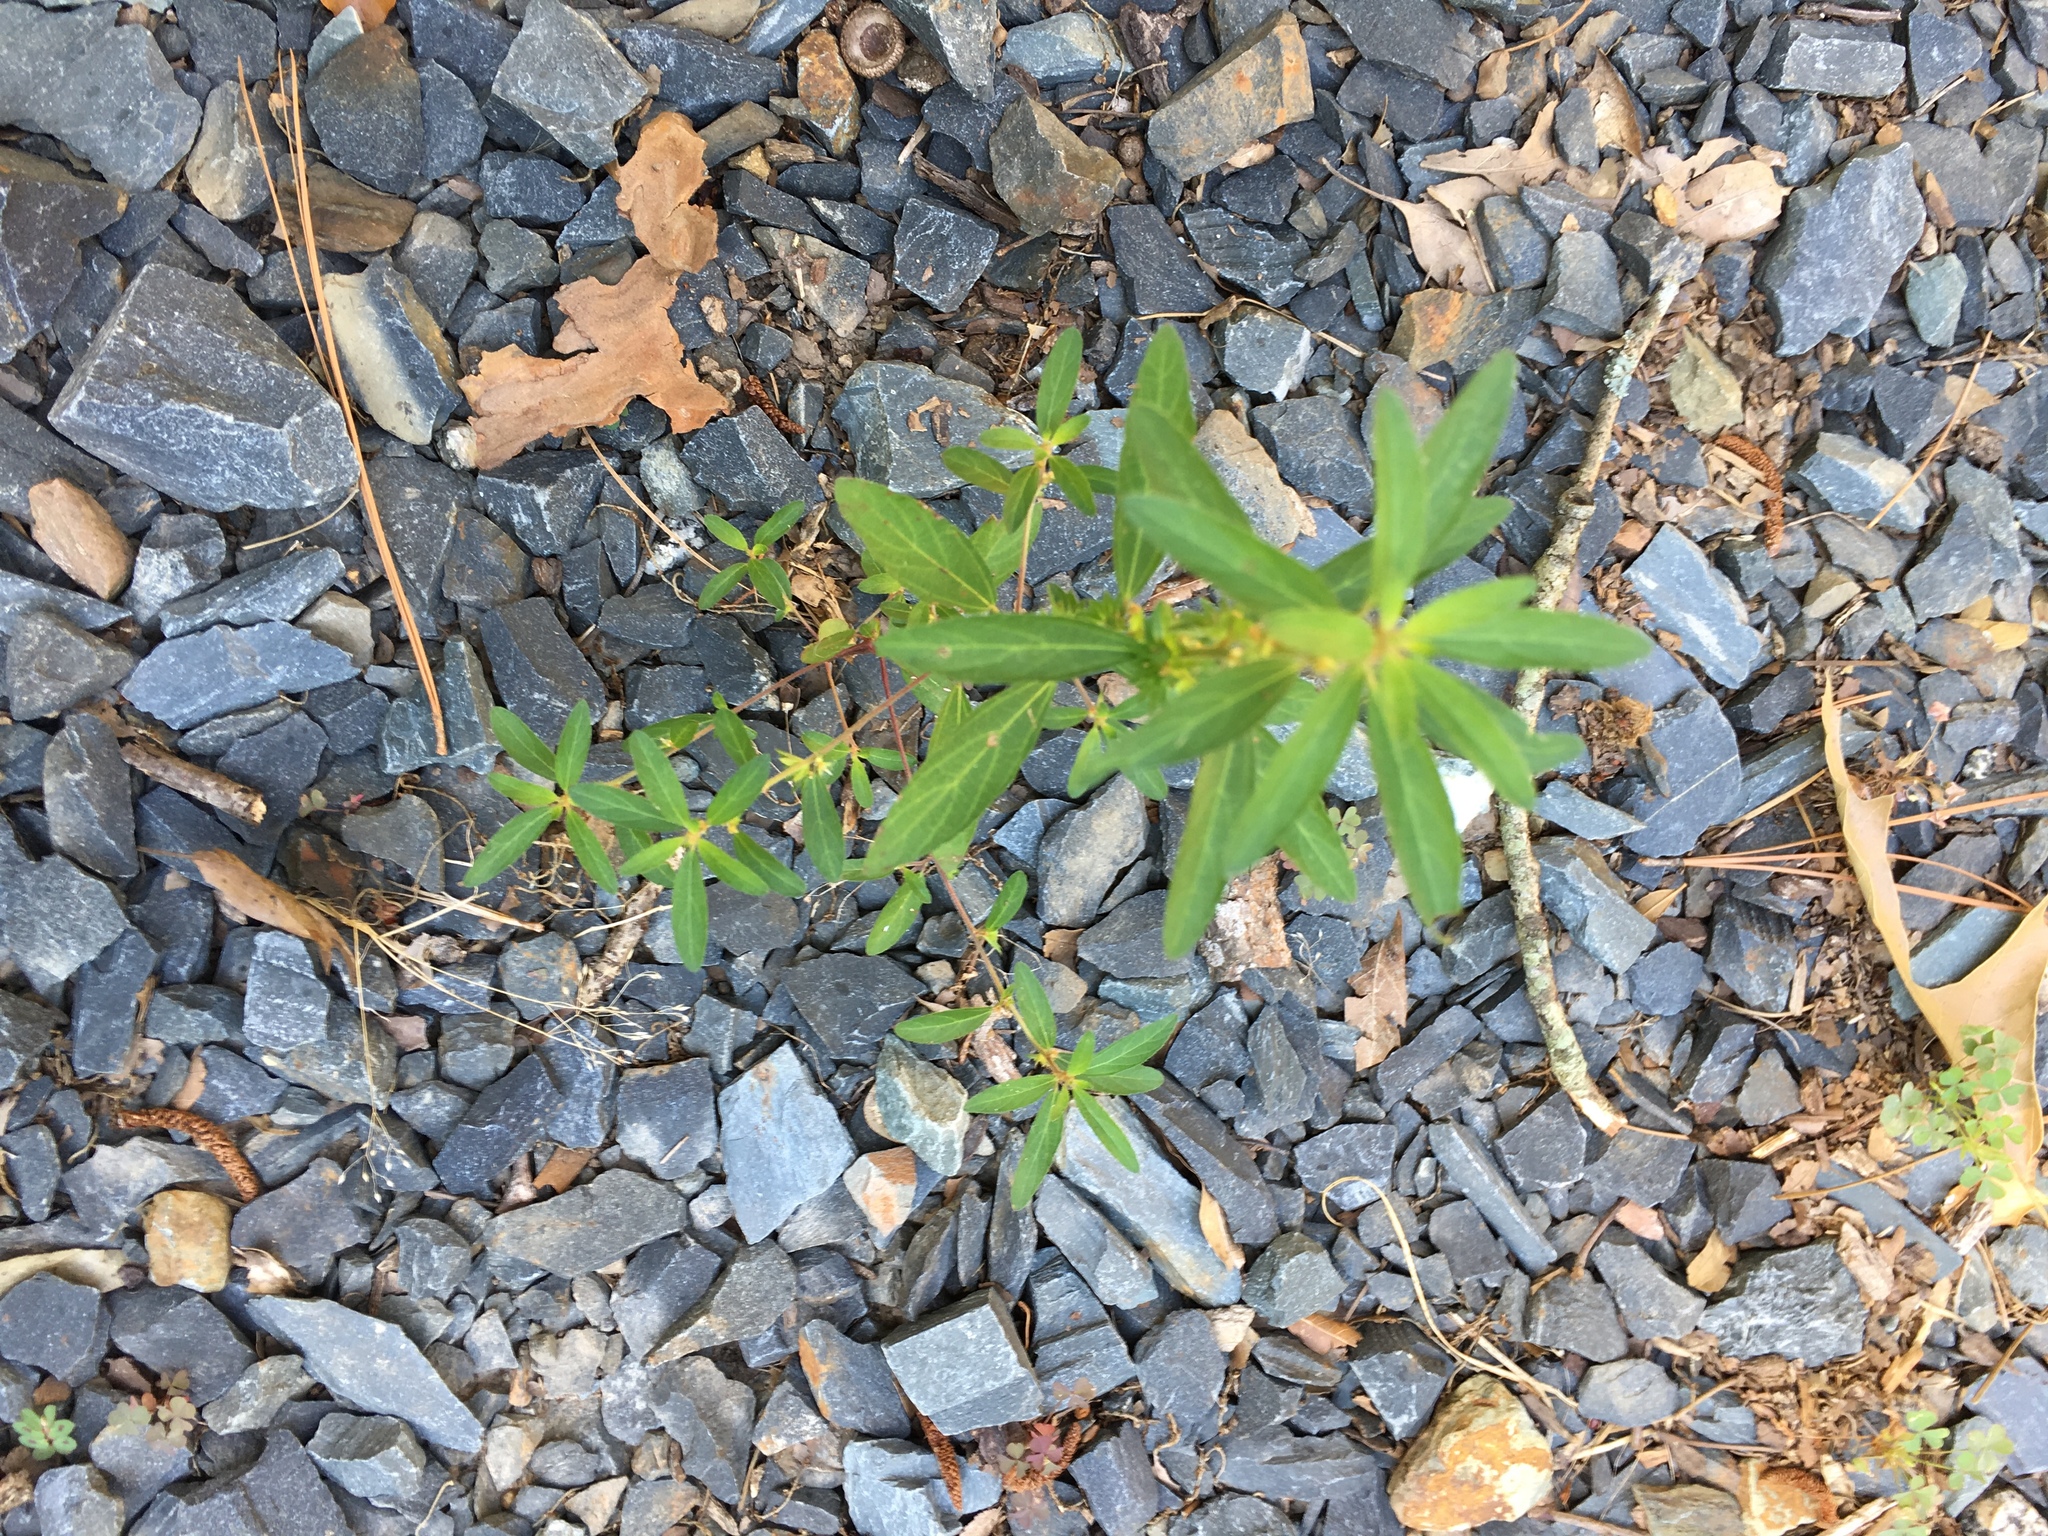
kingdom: Plantae
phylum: Tracheophyta
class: Magnoliopsida
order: Malpighiales
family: Euphorbiaceae
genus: Acalypha
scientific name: Acalypha gracilens
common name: Slender three-seeded mercury
